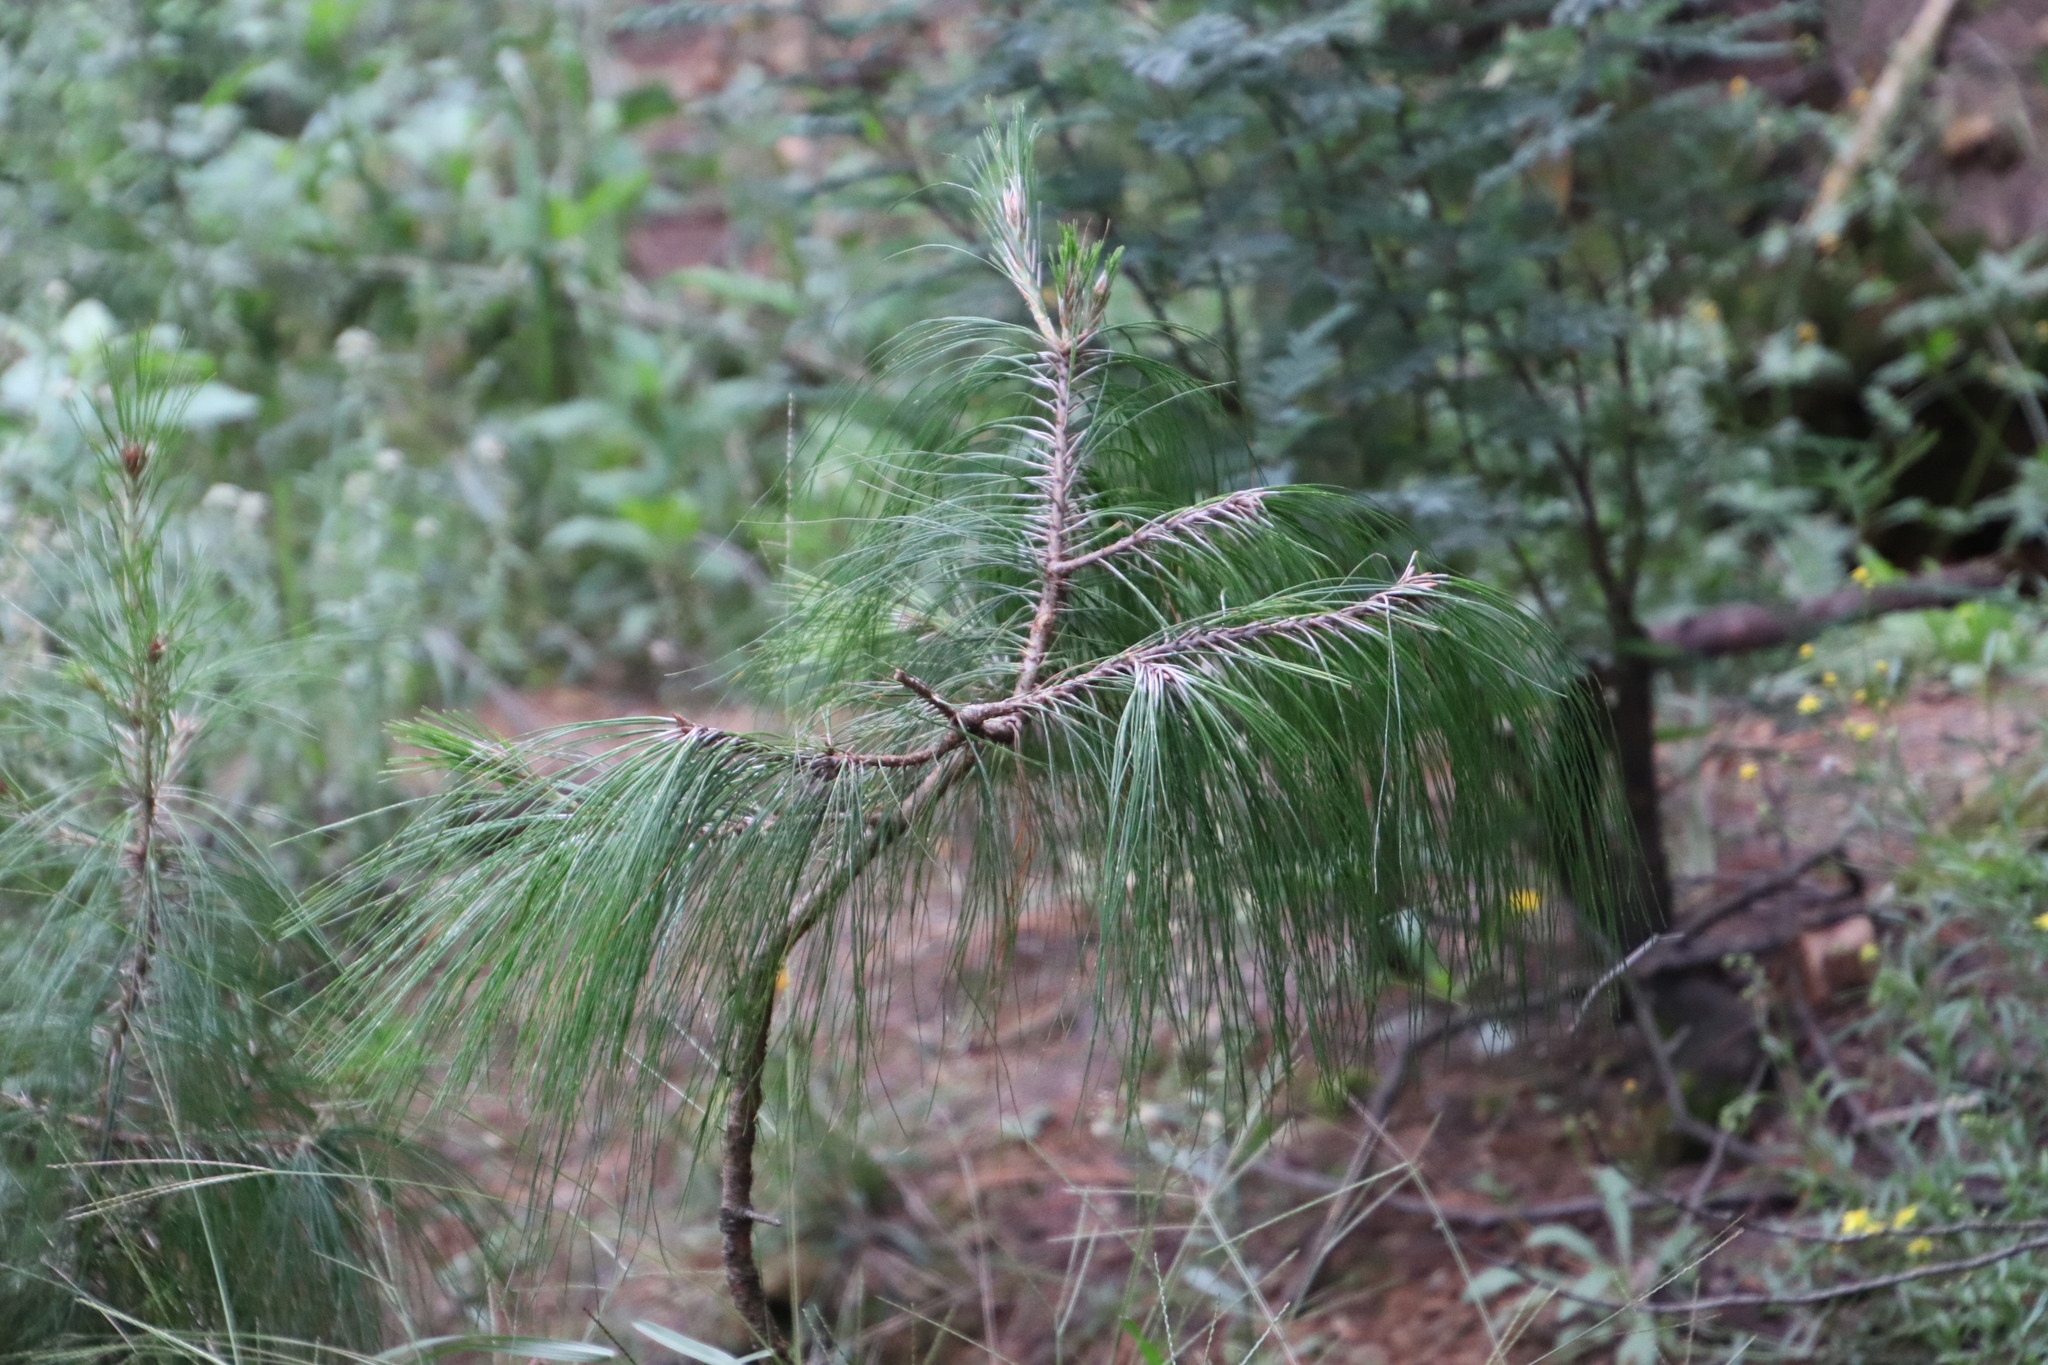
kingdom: Plantae
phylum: Tracheophyta
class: Pinopsida
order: Pinales
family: Pinaceae
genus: Pinus
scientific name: Pinus patula
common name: Mexican weeping pine
